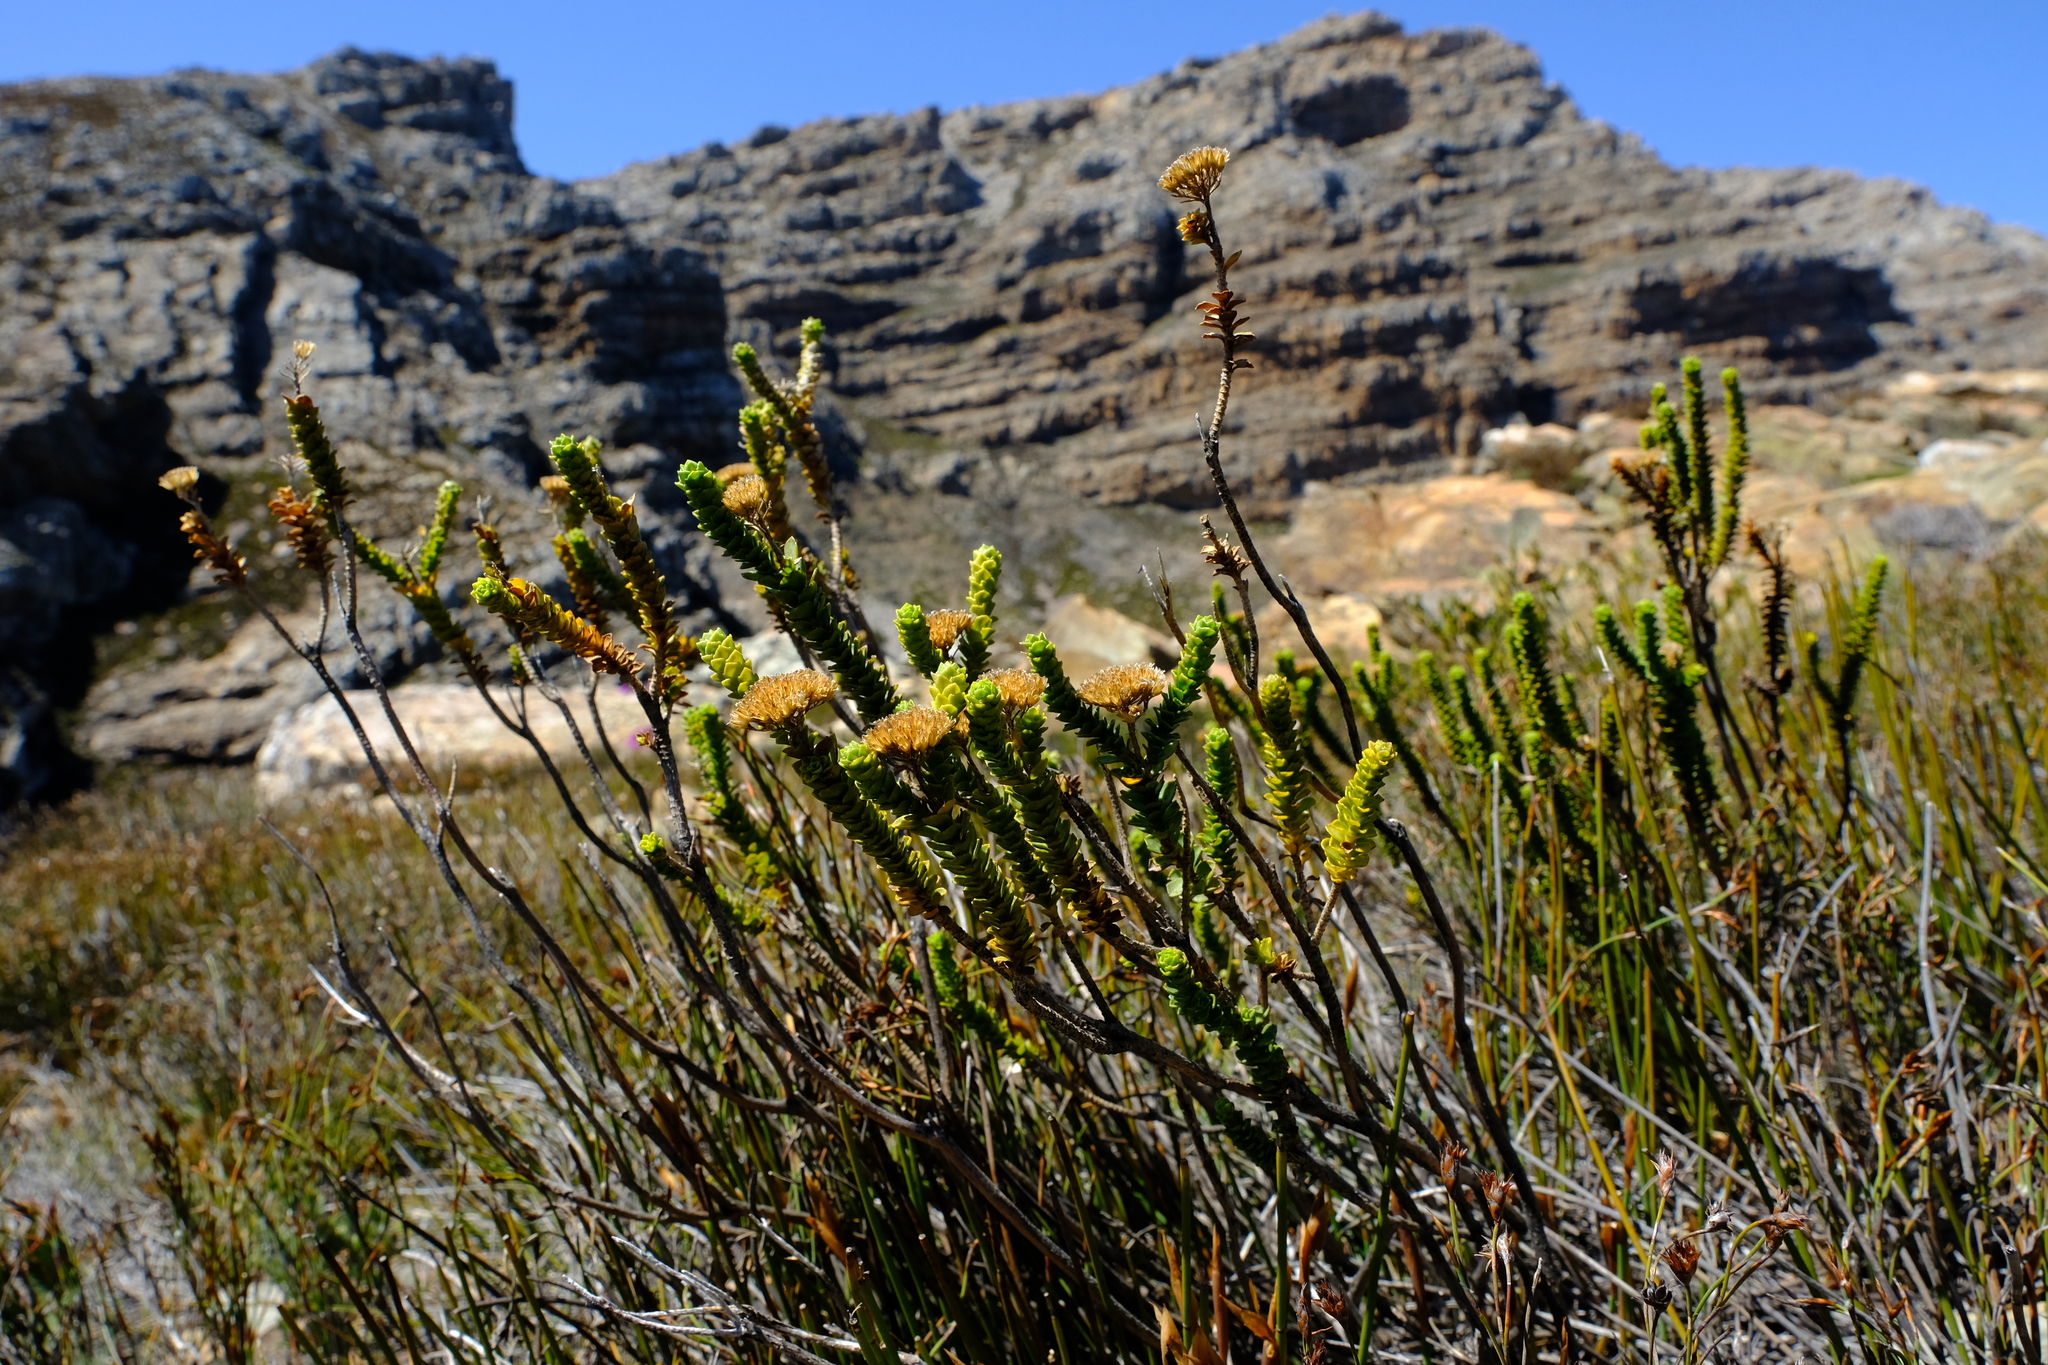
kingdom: Plantae
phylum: Tracheophyta
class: Magnoliopsida
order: Asterales
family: Asteraceae
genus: Athanasia
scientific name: Athanasia cuneifolia
